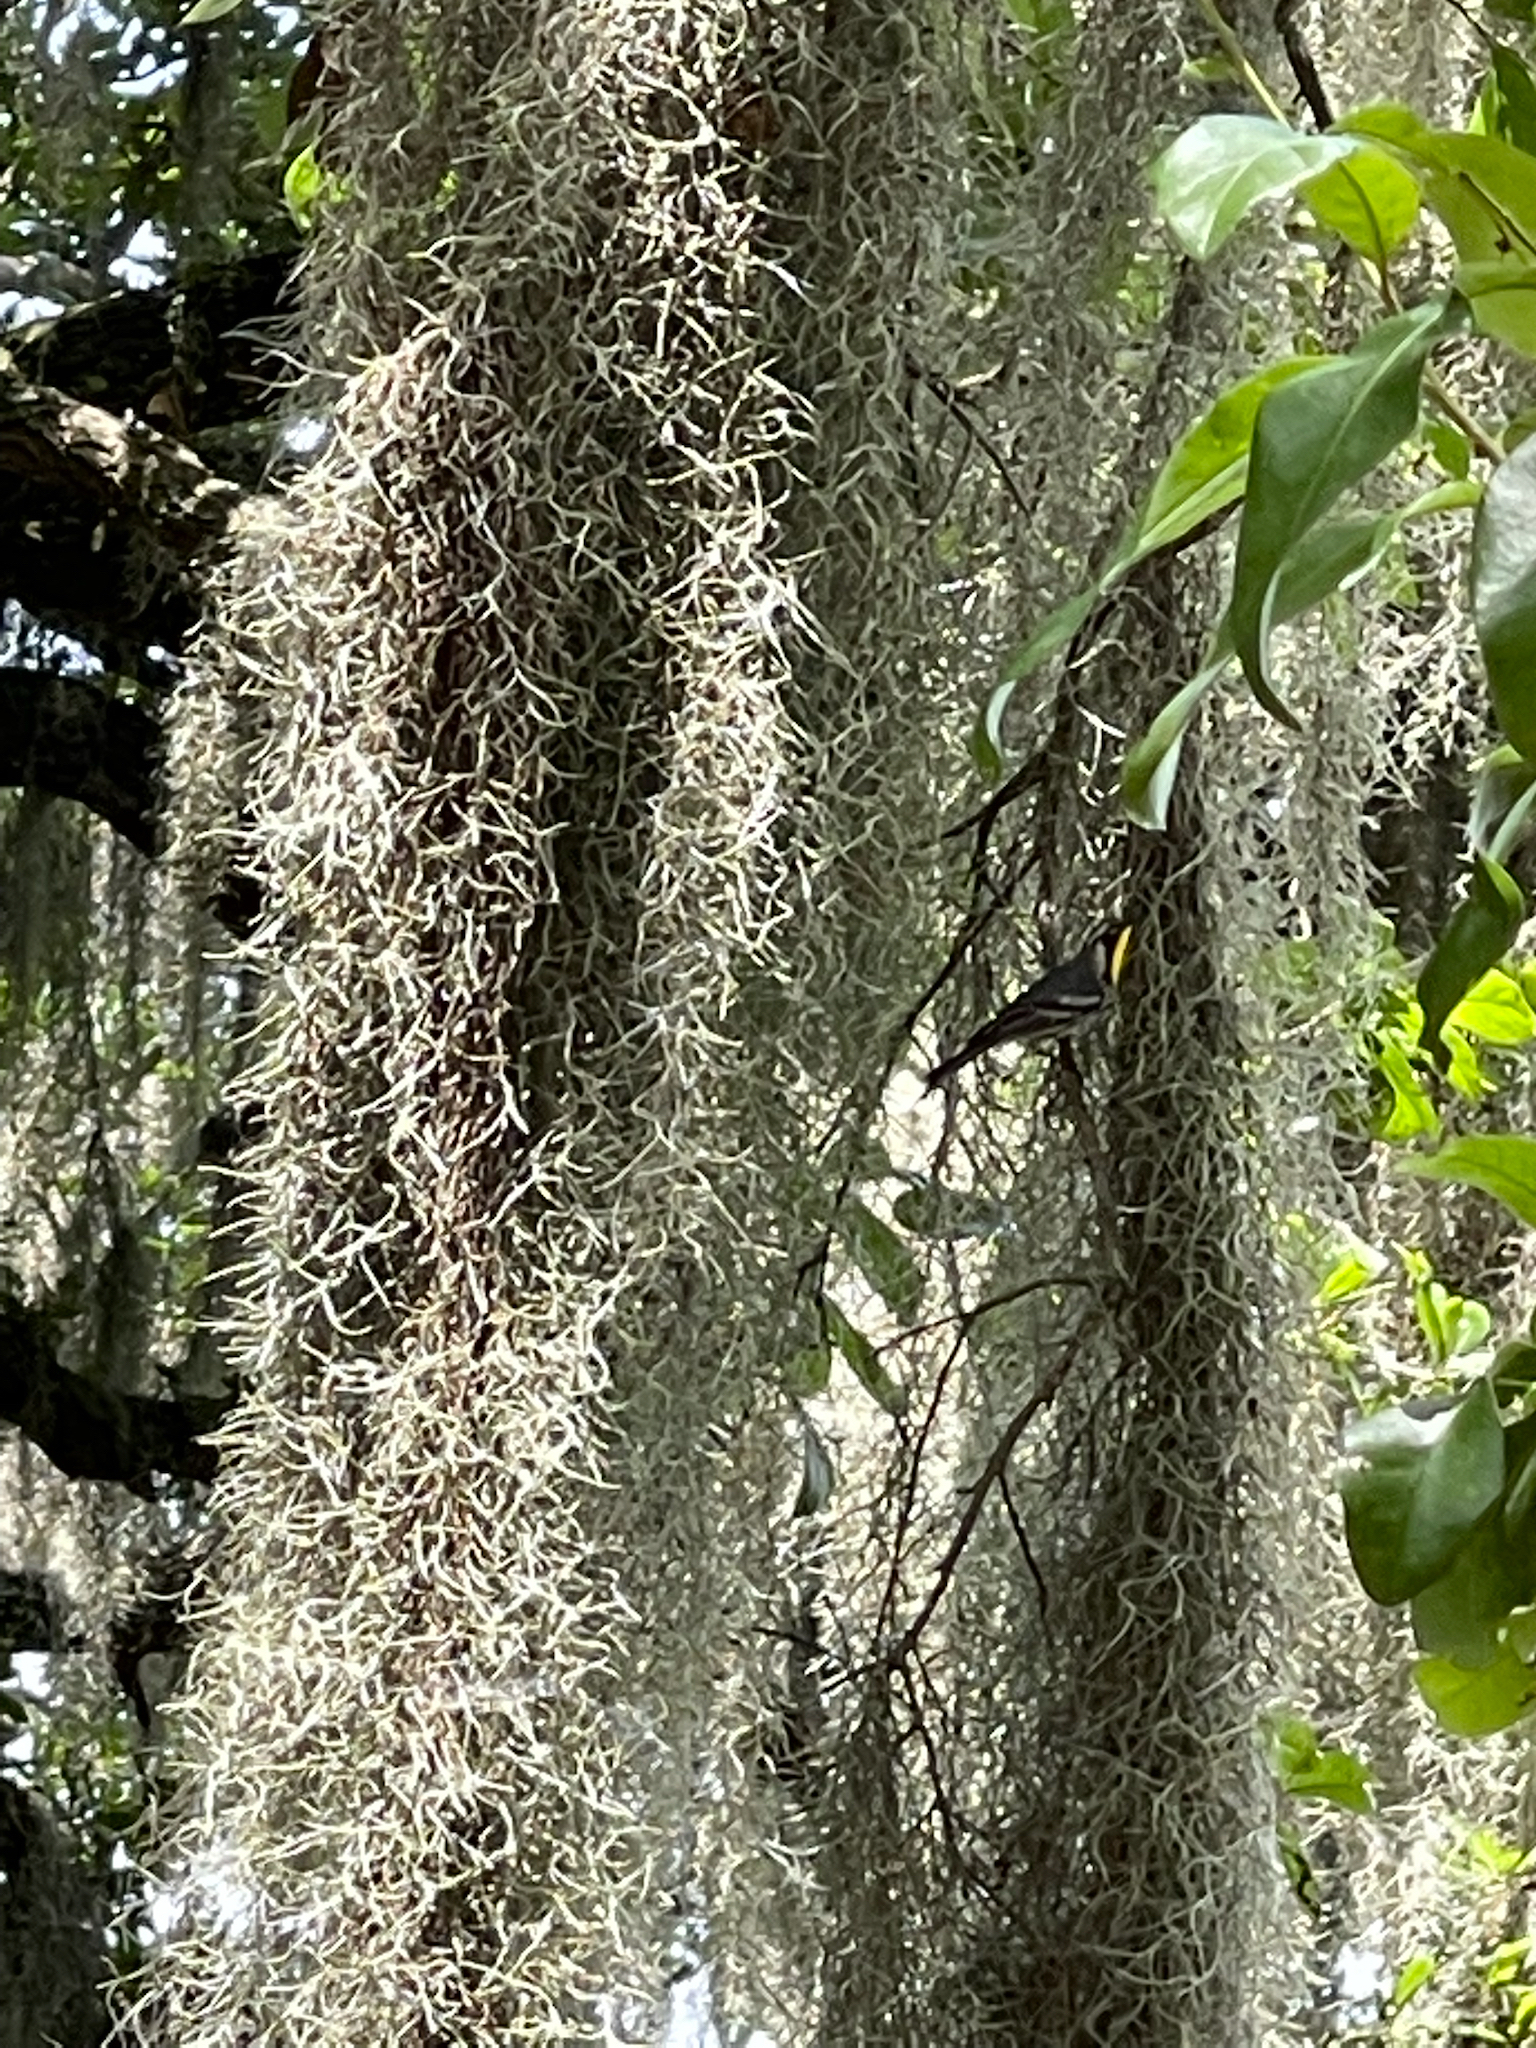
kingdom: Animalia
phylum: Chordata
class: Aves
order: Passeriformes
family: Parulidae
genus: Setophaga
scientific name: Setophaga dominica
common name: Yellow-throated warbler
